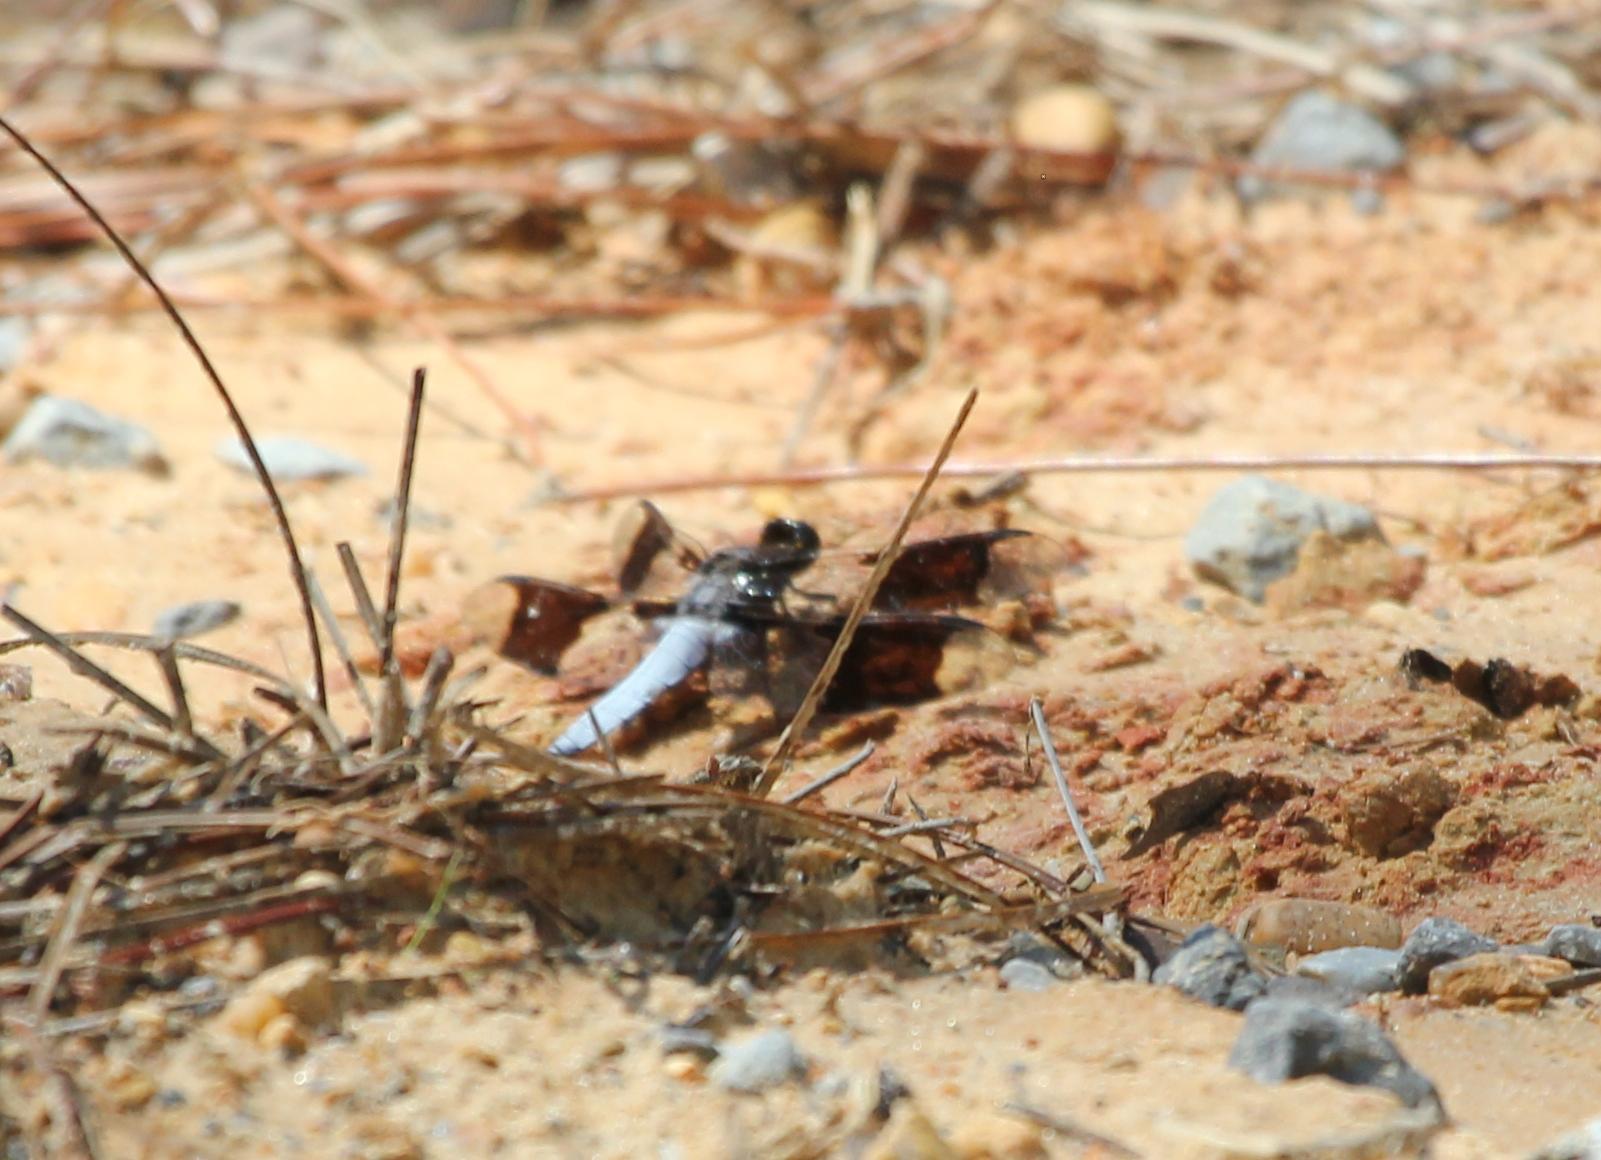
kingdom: Animalia
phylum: Arthropoda
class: Insecta
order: Odonata
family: Libellulidae
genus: Plathemis
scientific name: Plathemis lydia
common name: Common whitetail
